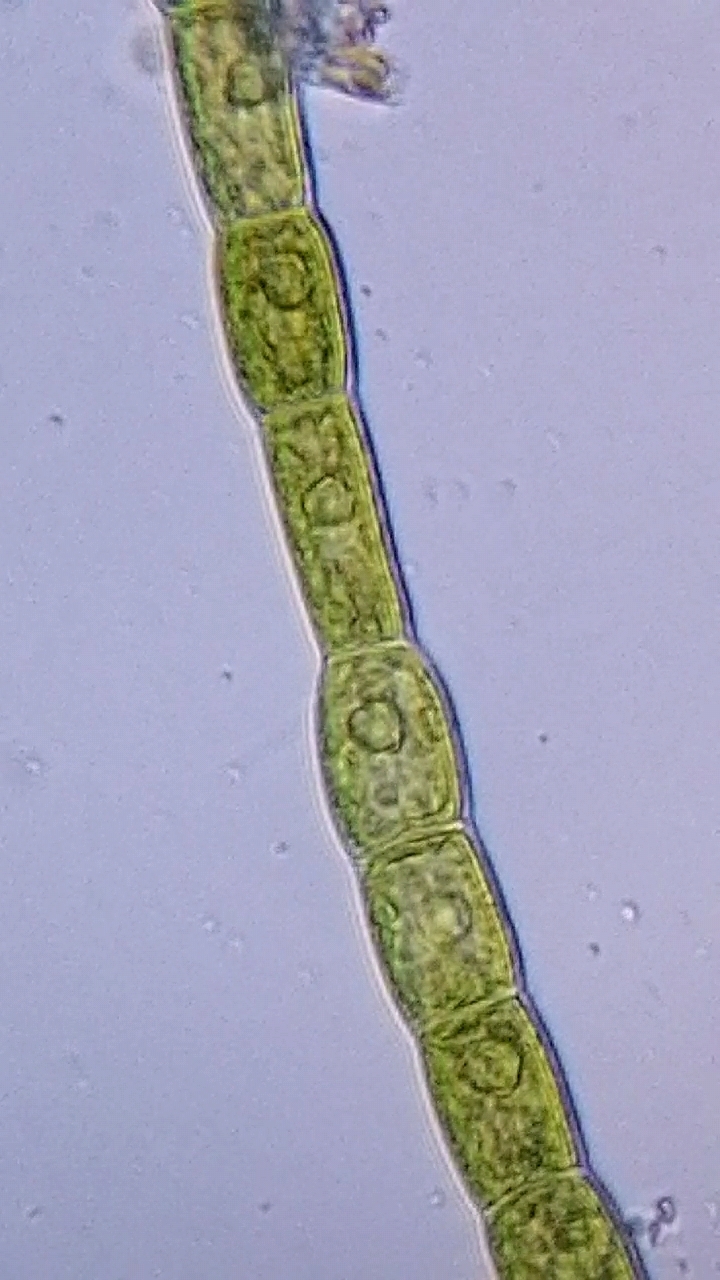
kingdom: Plantae
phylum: Chlorophyta
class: Chlorophyceae
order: Oedogoniales
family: Oedogoniaceae
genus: Oedogonium
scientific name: Oedogonium
